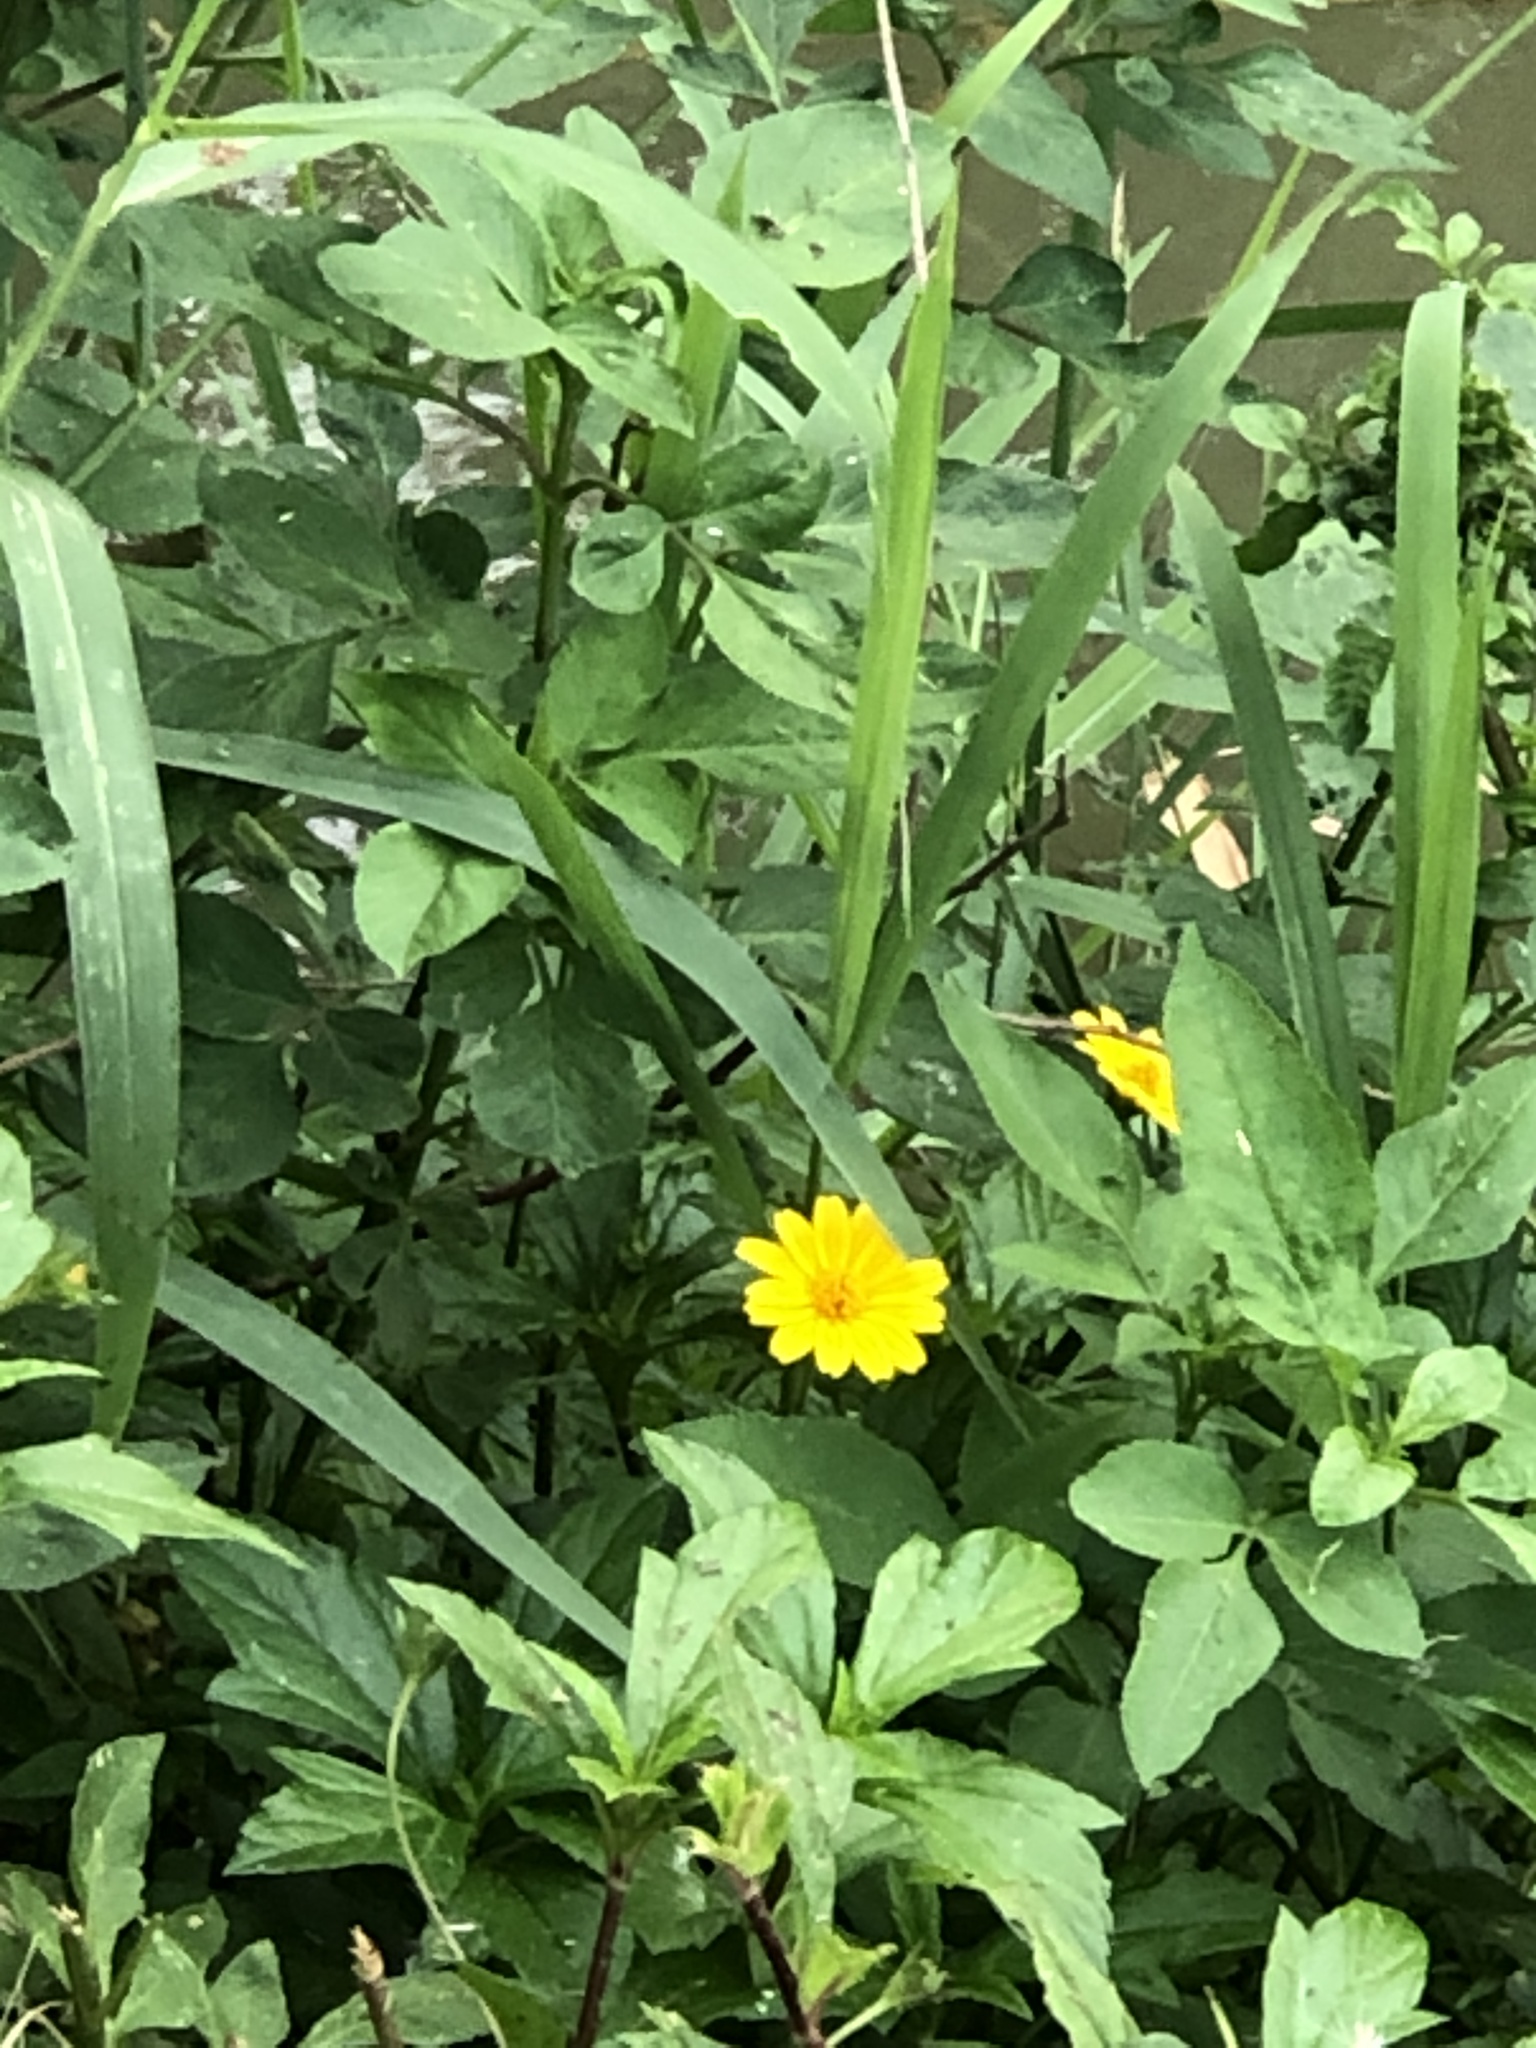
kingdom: Plantae
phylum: Tracheophyta
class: Magnoliopsida
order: Asterales
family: Asteraceae
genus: Sphagneticola
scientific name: Sphagneticola trilobata
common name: Bay biscayne creeping-oxeye
